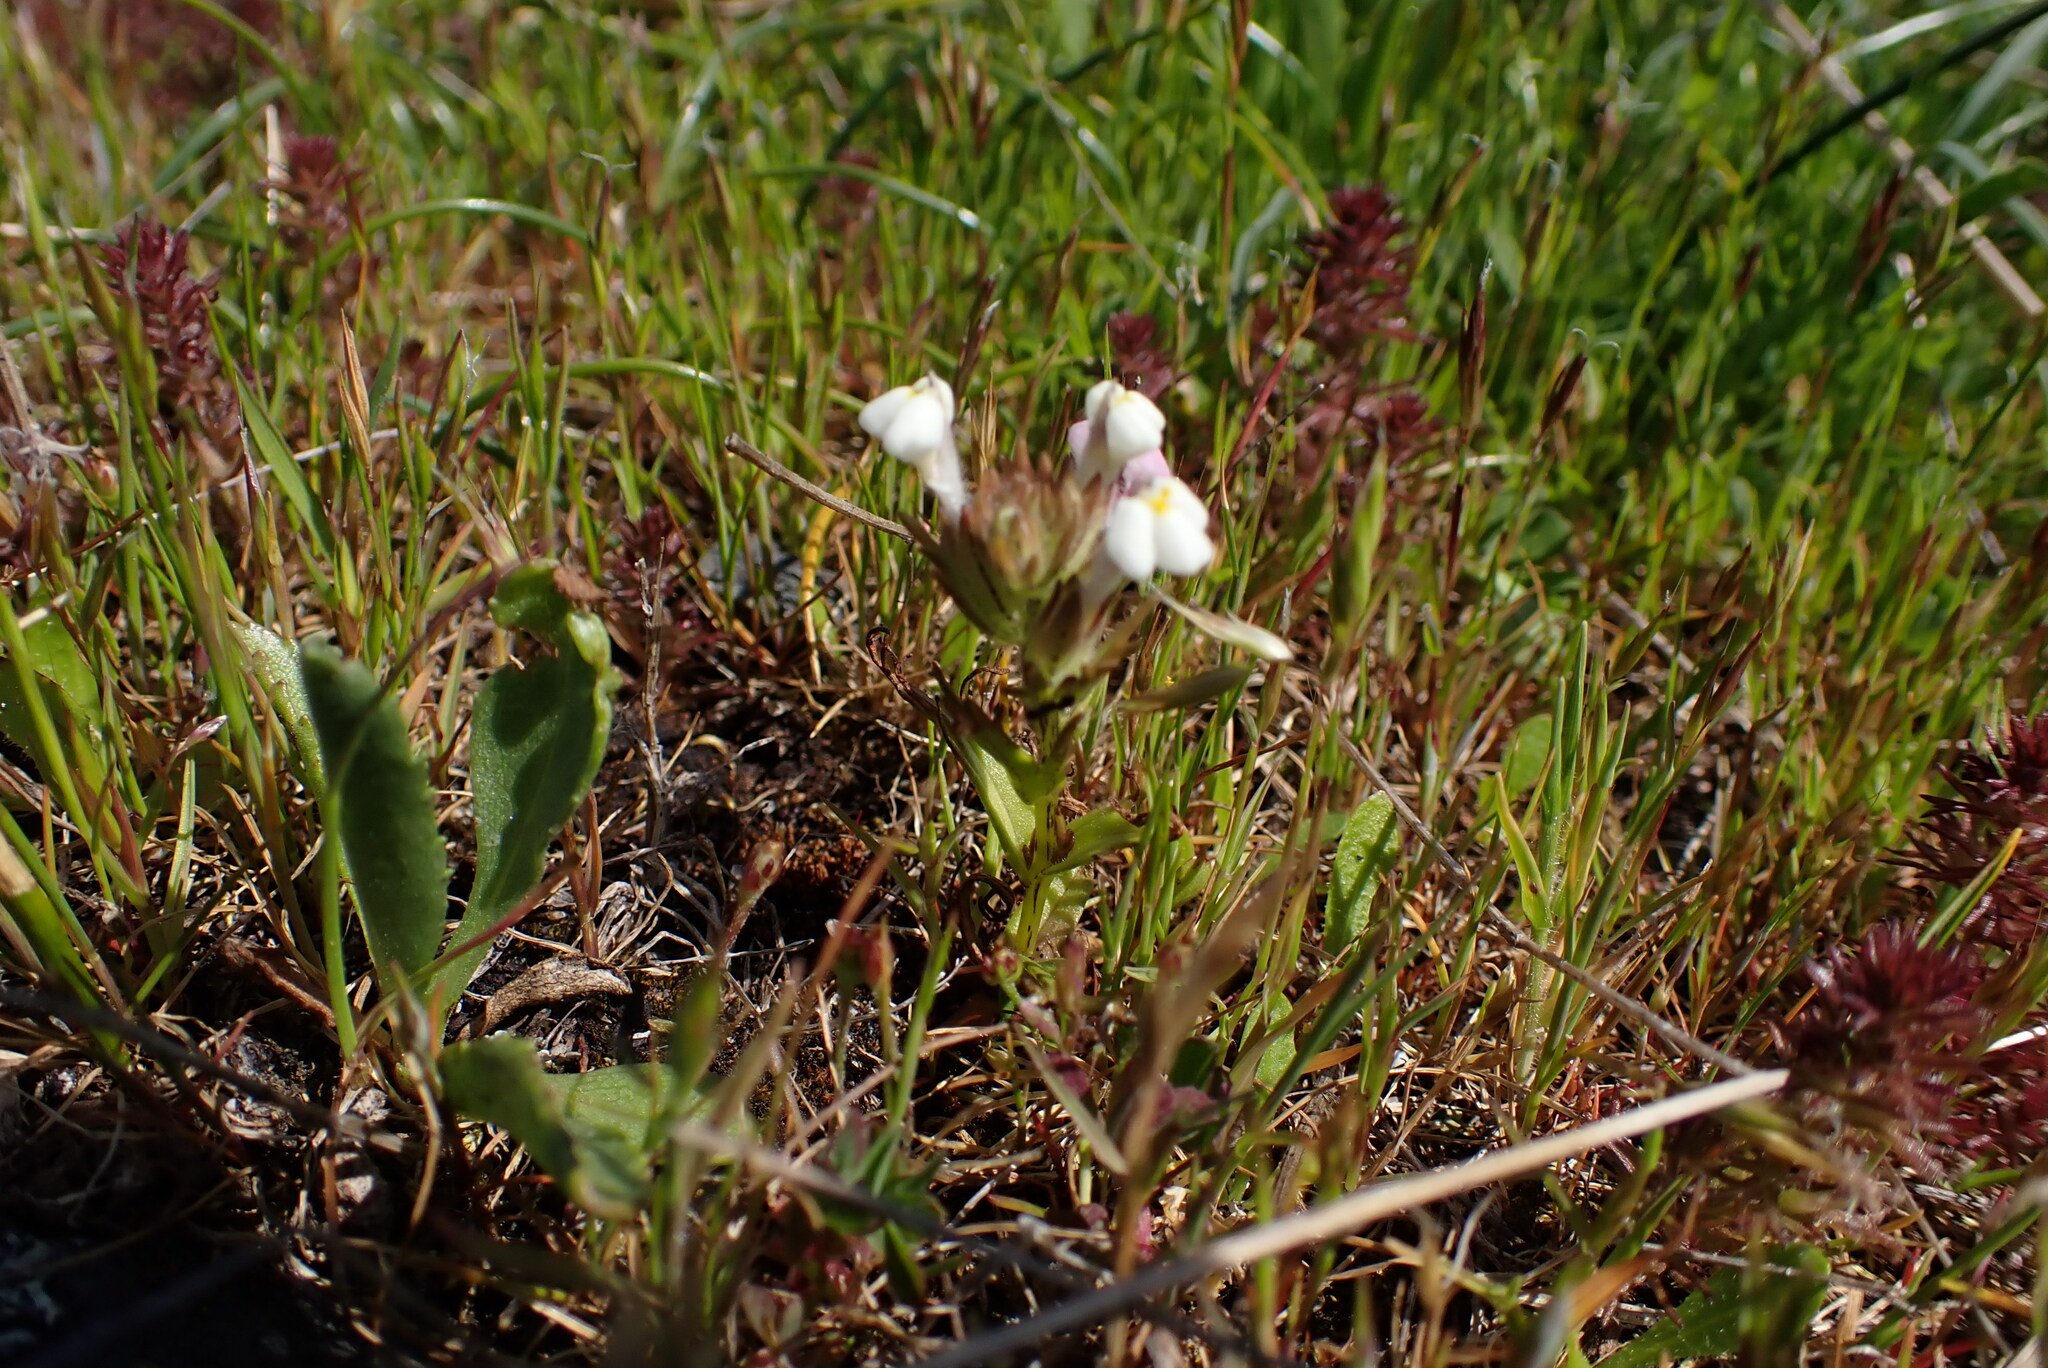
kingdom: Plantae
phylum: Tracheophyta
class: Magnoliopsida
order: Lamiales
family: Orobanchaceae
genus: Triphysaria
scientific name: Triphysaria versicolor
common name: Bearded false owl-clover
